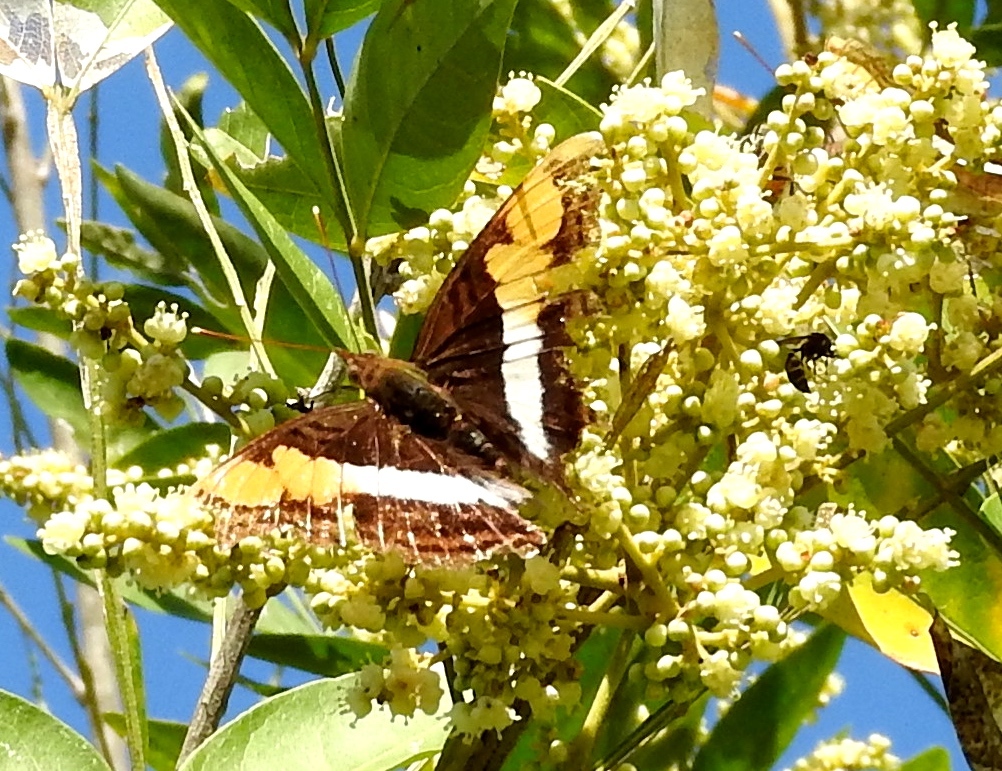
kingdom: Animalia
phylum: Arthropoda
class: Insecta
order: Lepidoptera
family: Nymphalidae
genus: Doxocopa
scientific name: Doxocopa laure
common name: Silver emperor
